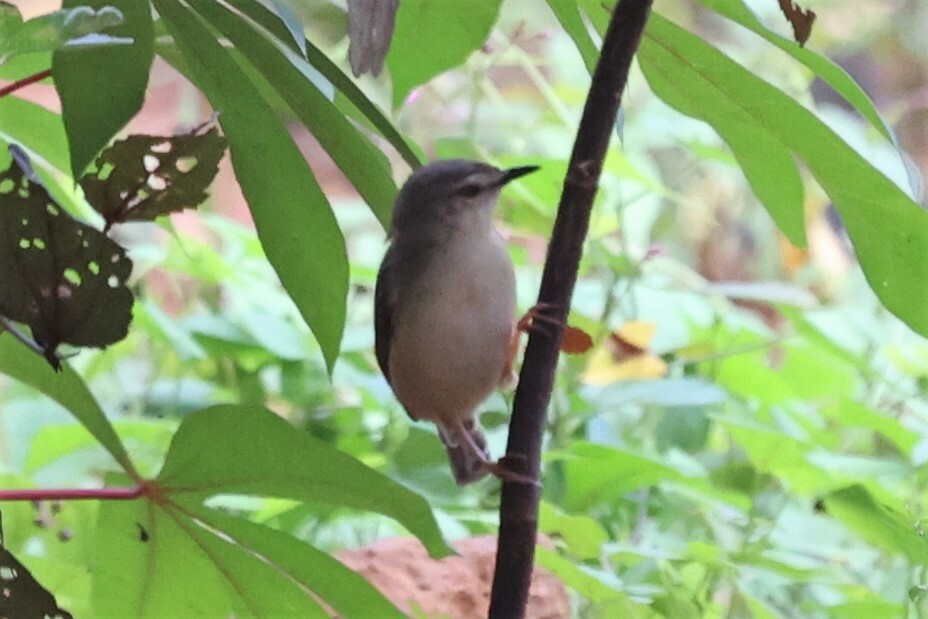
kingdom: Animalia
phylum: Chordata
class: Aves
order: Passeriformes
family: Cisticolidae
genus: Prinia
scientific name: Prinia subflava
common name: Tawny-flanked prinia
